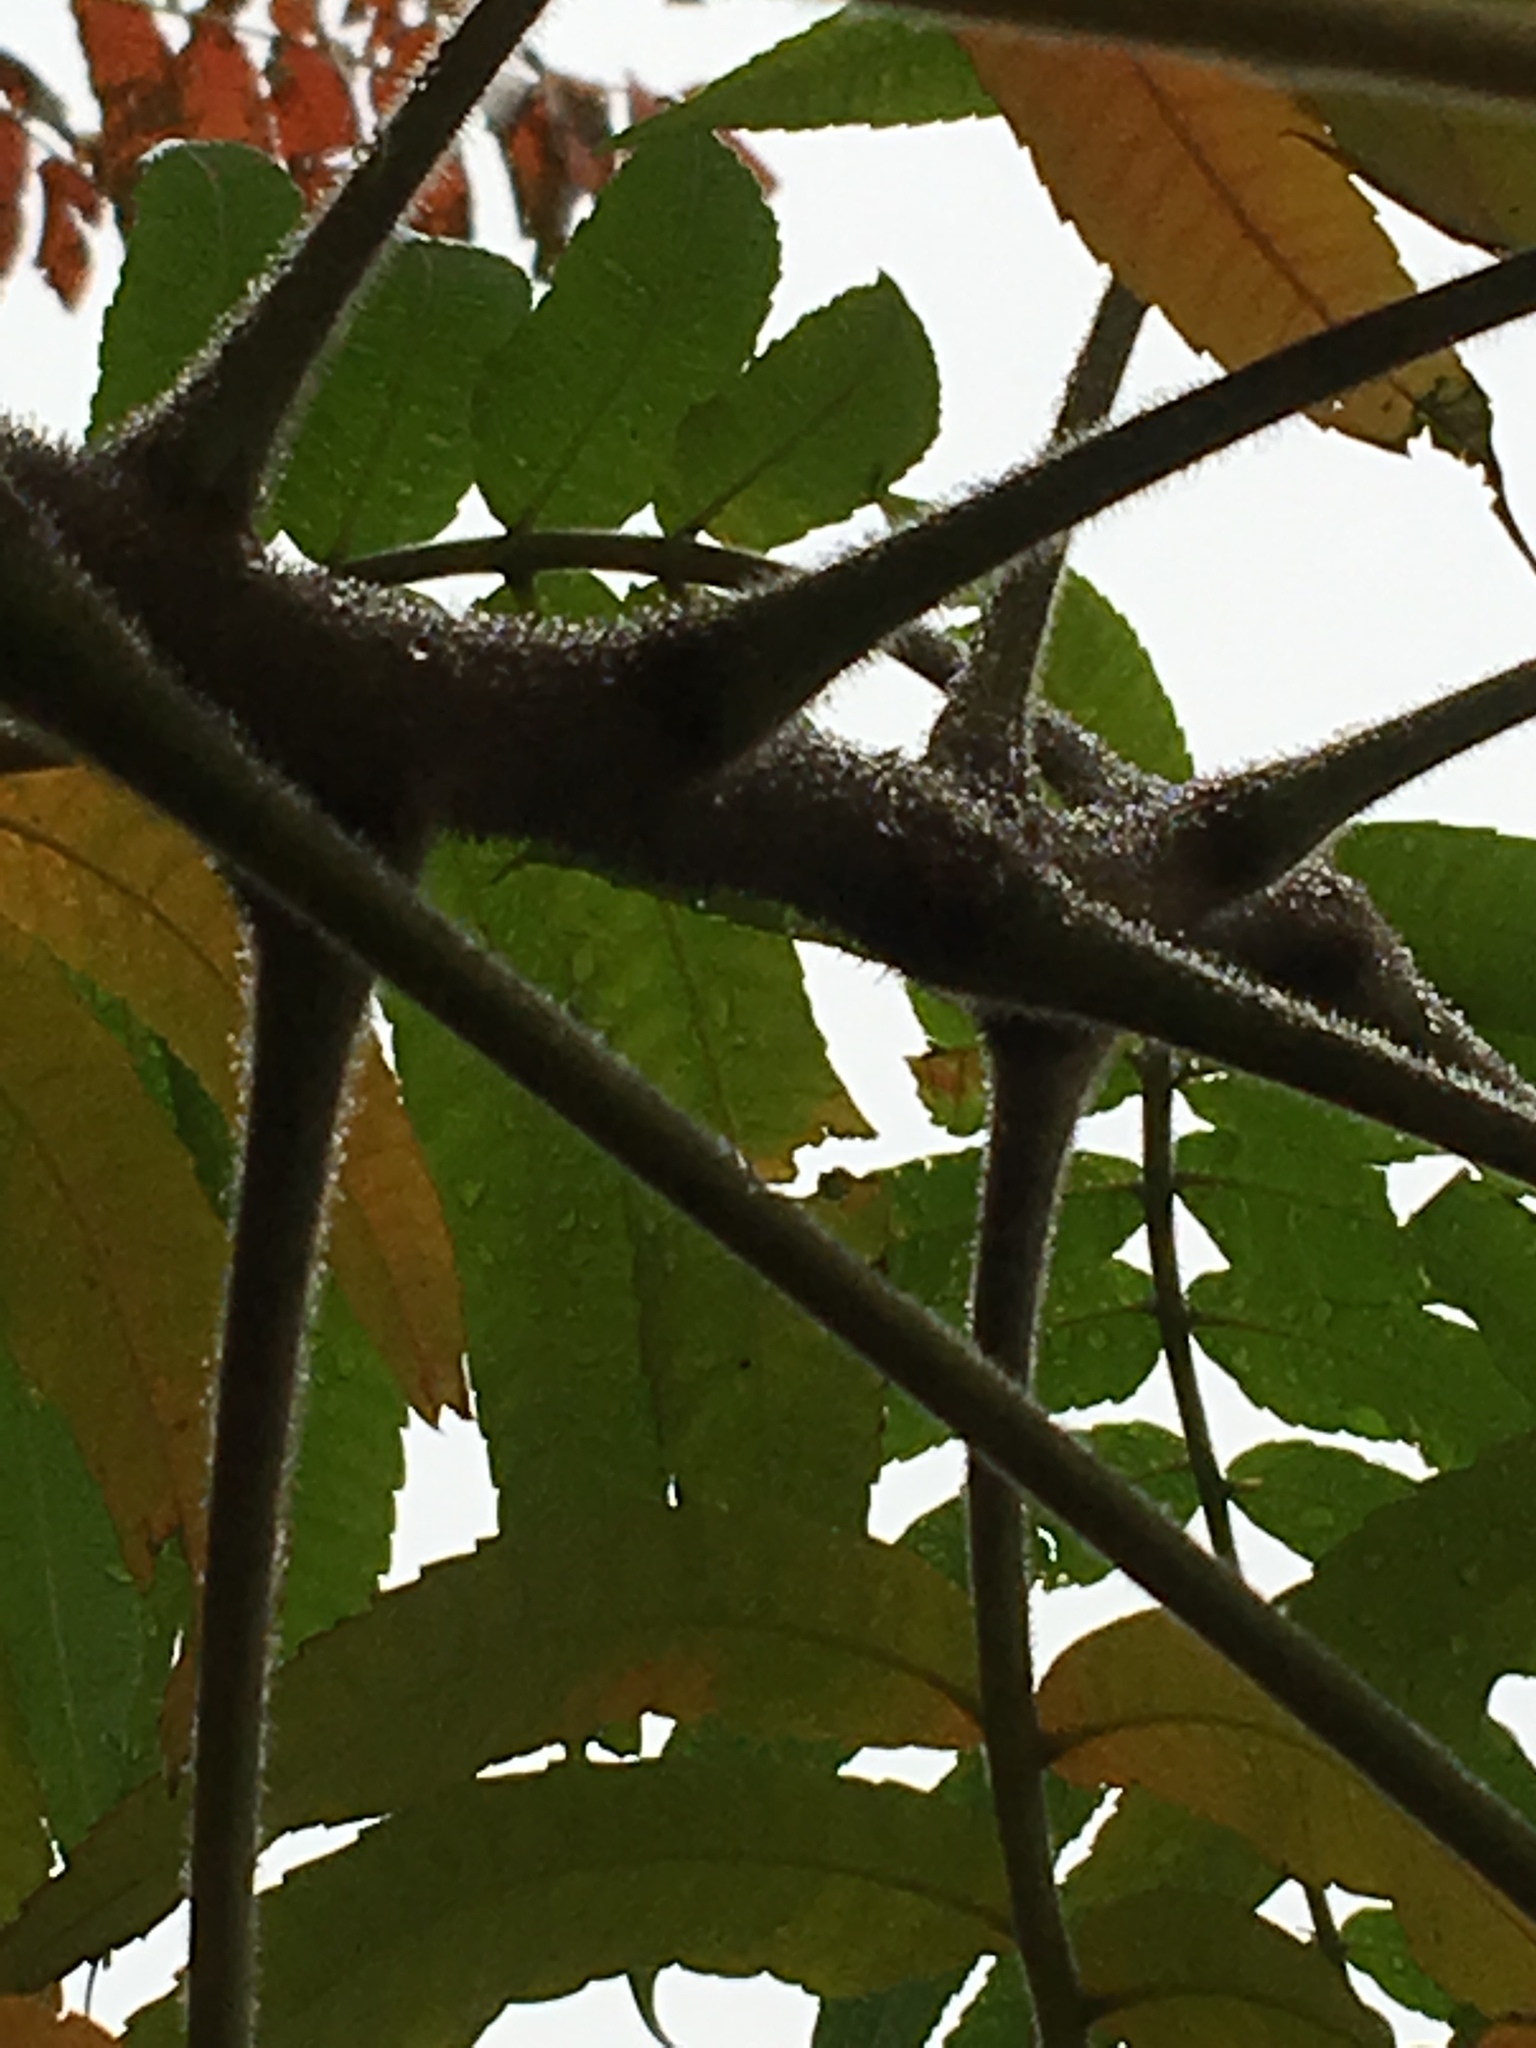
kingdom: Plantae
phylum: Tracheophyta
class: Magnoliopsida
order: Sapindales
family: Anacardiaceae
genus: Rhus
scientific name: Rhus typhina
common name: Staghorn sumac
